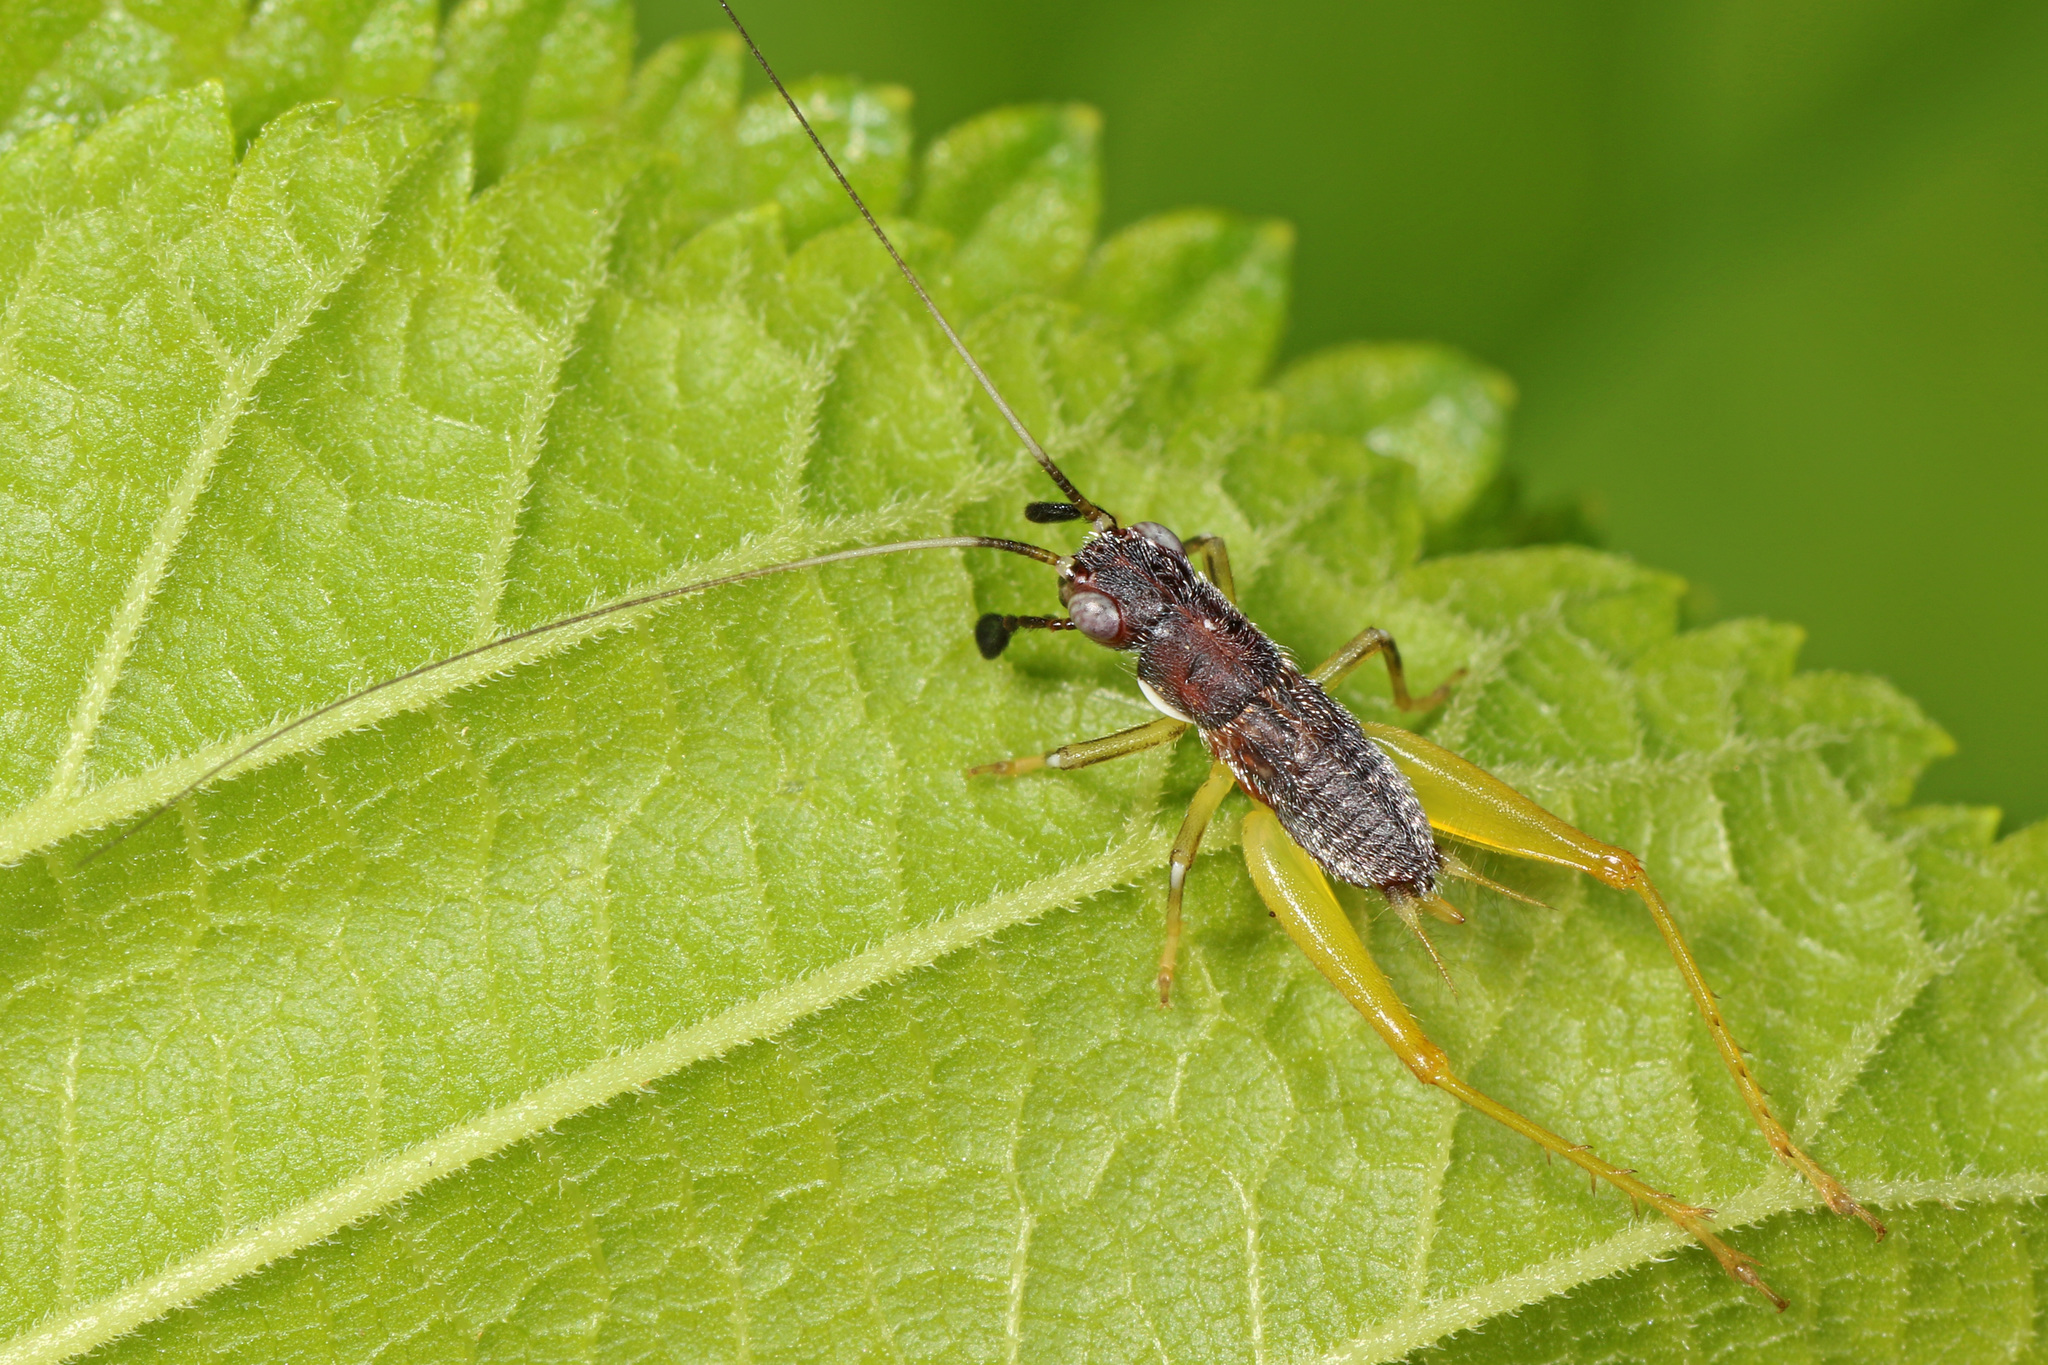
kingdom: Animalia
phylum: Arthropoda
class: Insecta
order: Orthoptera
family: Trigonidiidae
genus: Phyllopalpus
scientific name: Phyllopalpus pulchellus
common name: Handsome trig
